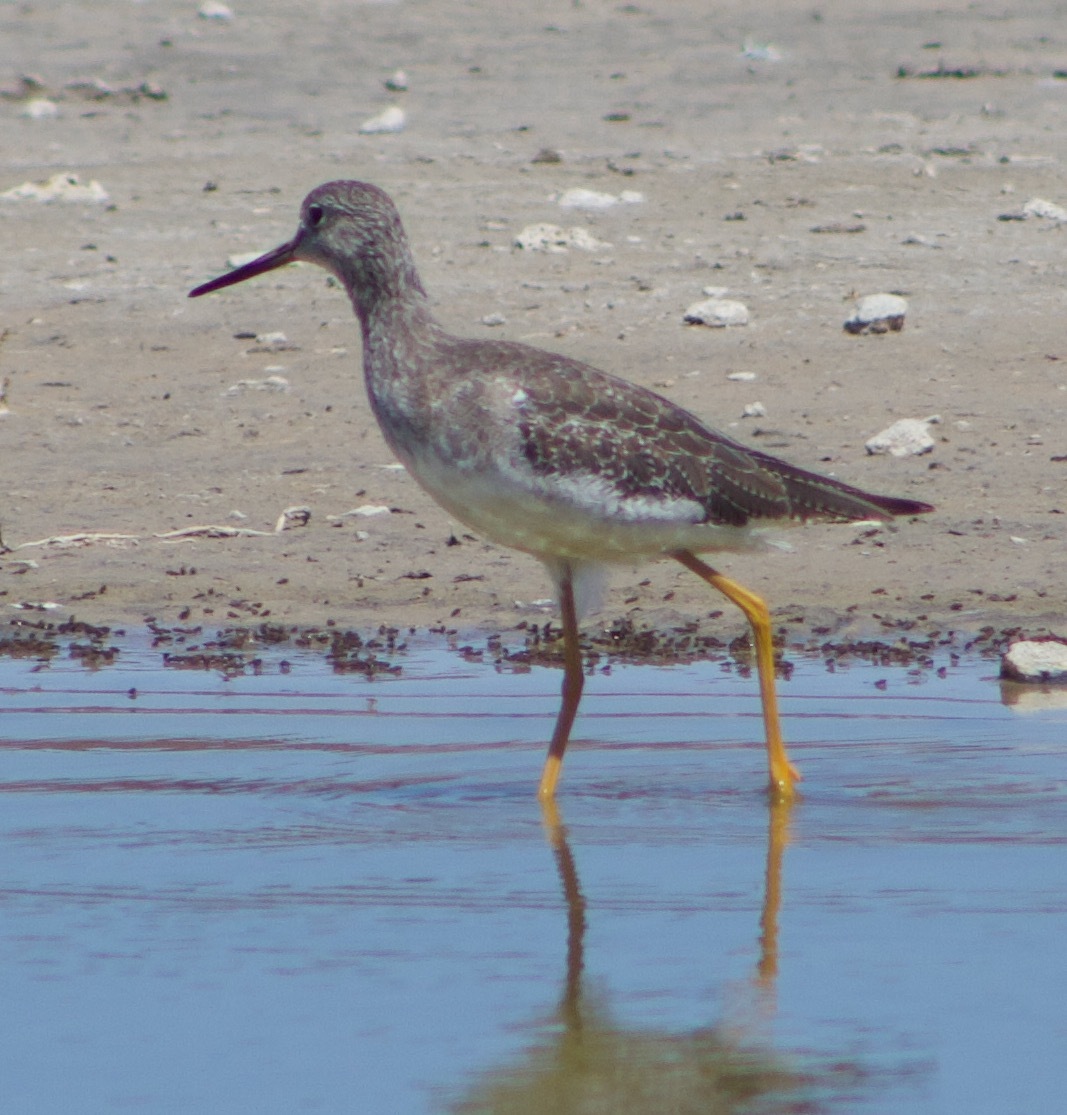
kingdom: Animalia
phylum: Chordata
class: Aves
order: Charadriiformes
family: Scolopacidae
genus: Tringa
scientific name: Tringa melanoleuca
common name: Greater yellowlegs
